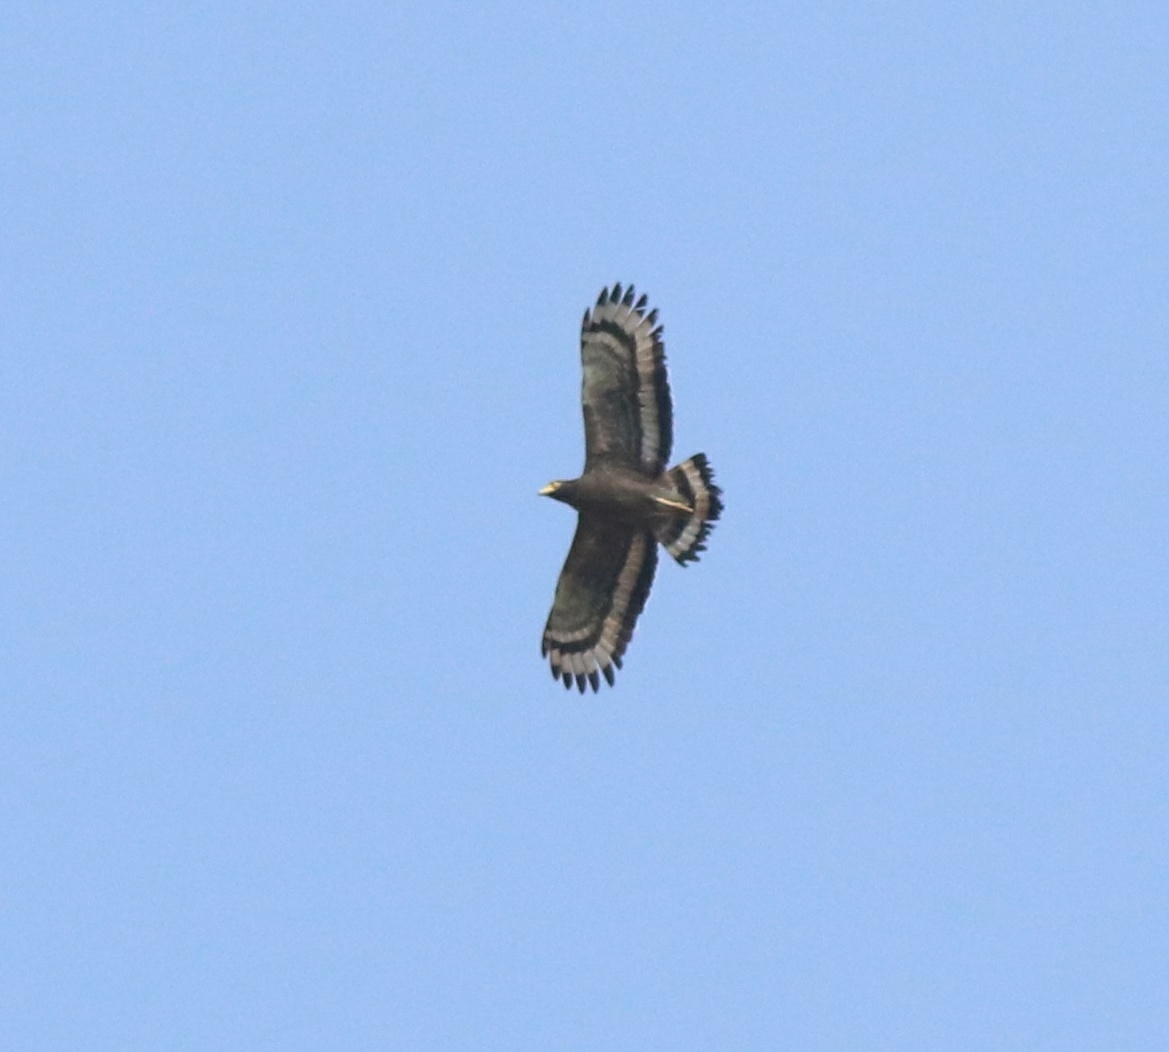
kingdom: Animalia
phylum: Chordata
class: Aves
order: Accipitriformes
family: Accipitridae
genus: Spilornis
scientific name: Spilornis cheela
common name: Crested serpent eagle
